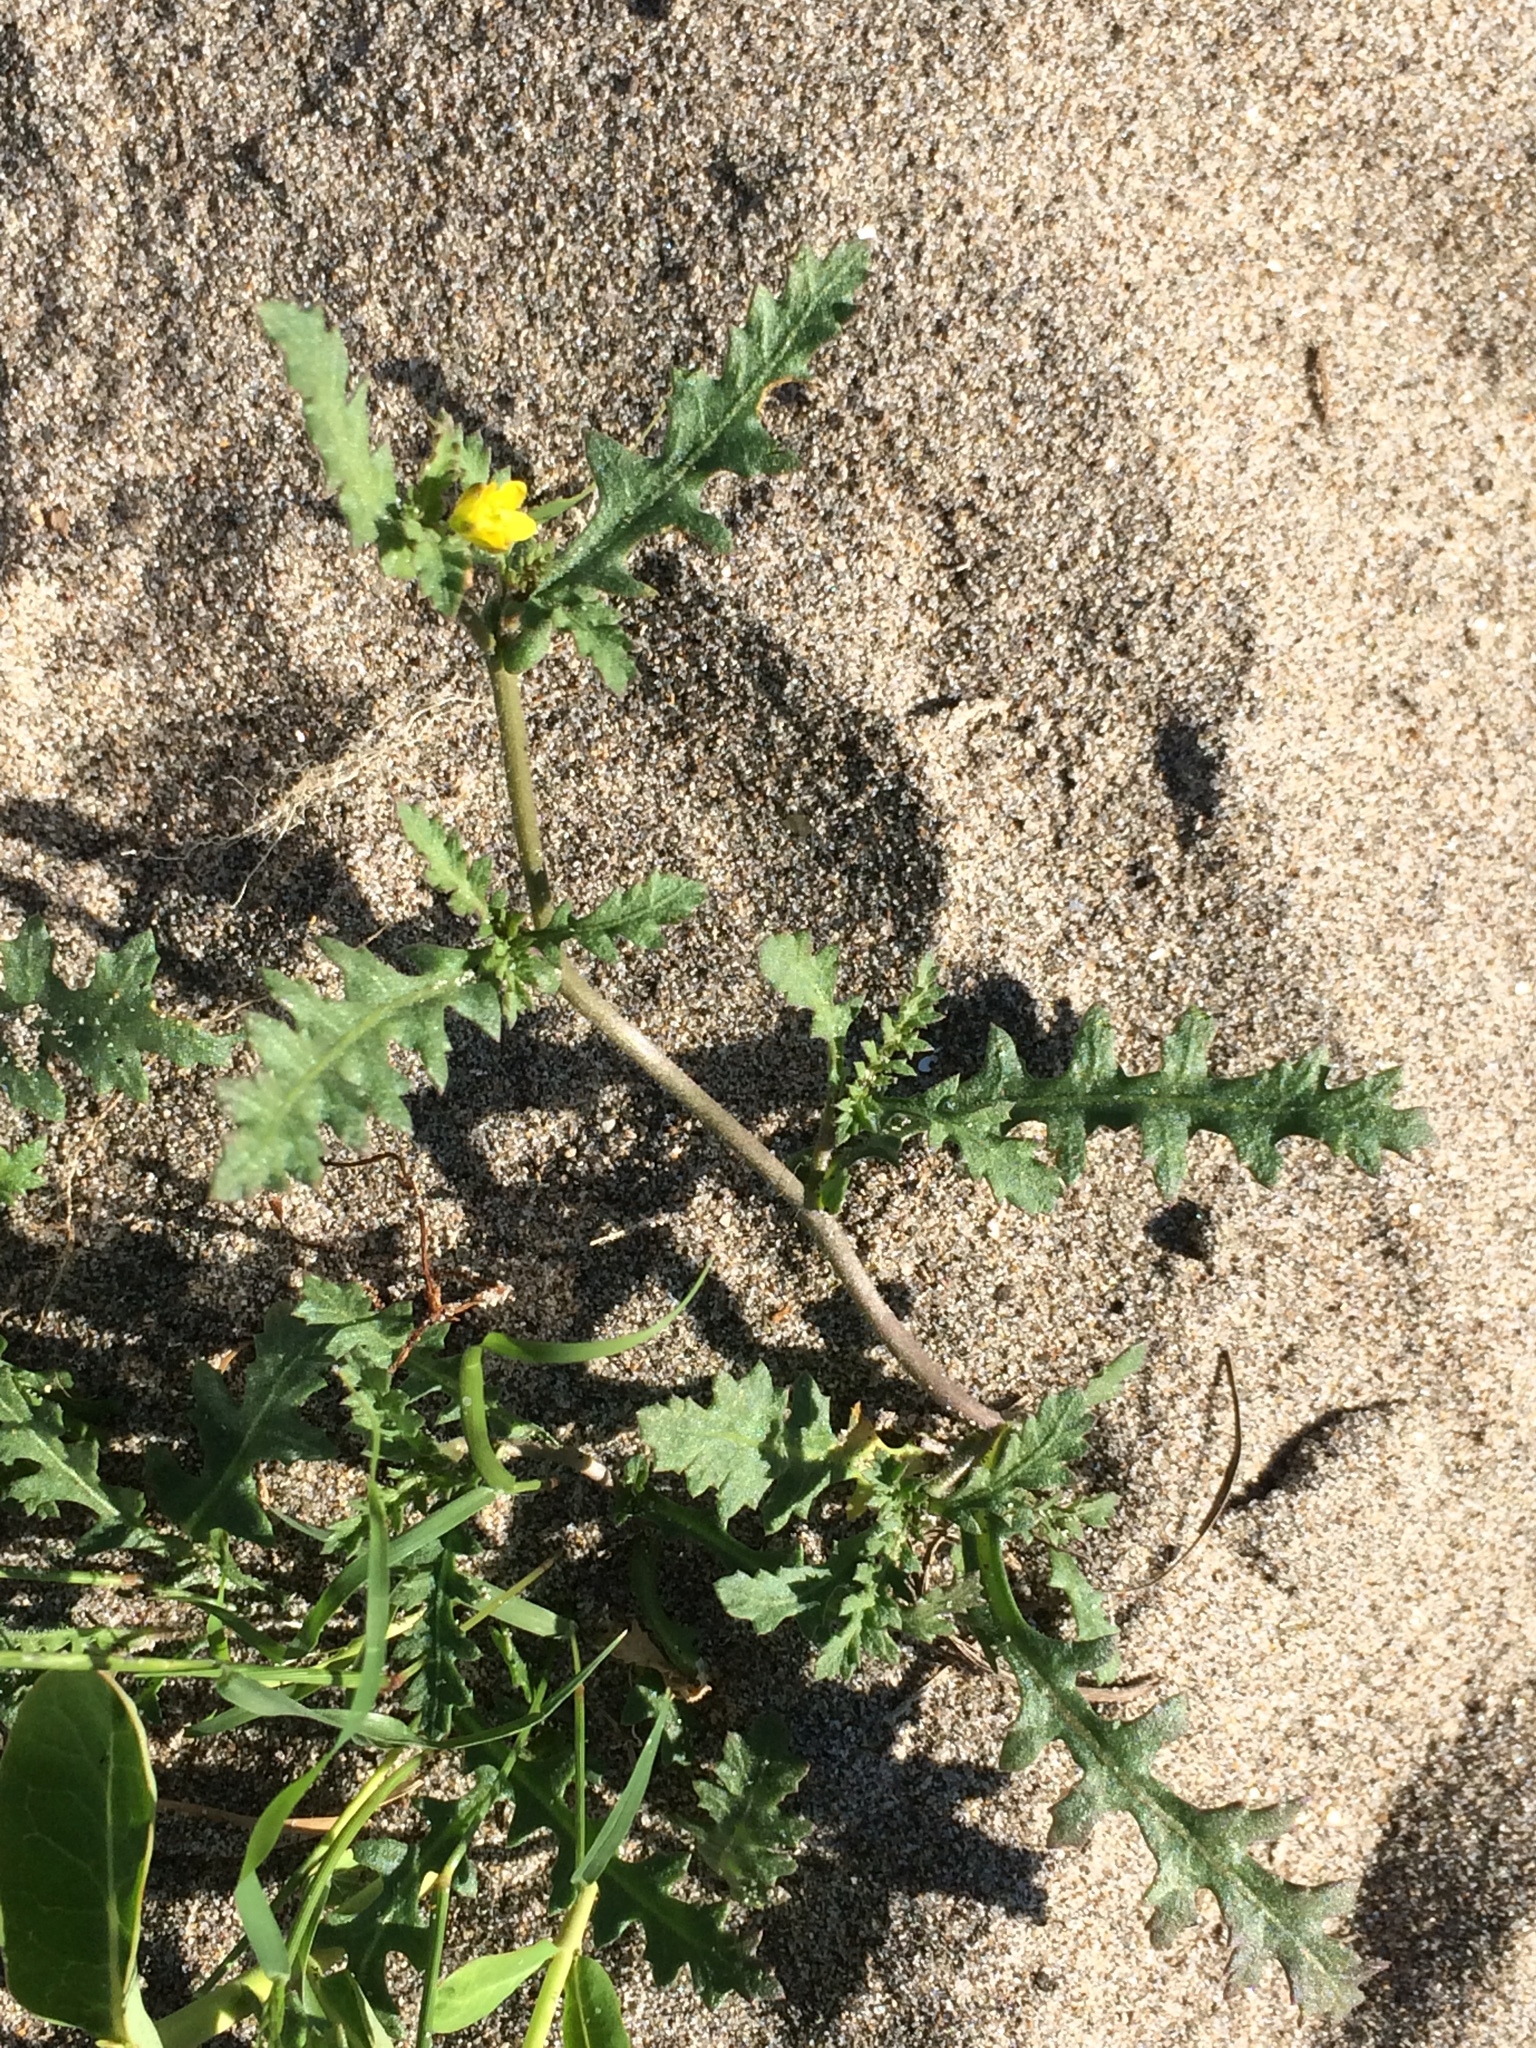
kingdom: Plantae
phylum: Tracheophyta
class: Magnoliopsida
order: Brassicales
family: Brassicaceae
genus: Rorippa
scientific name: Rorippa columbiae
